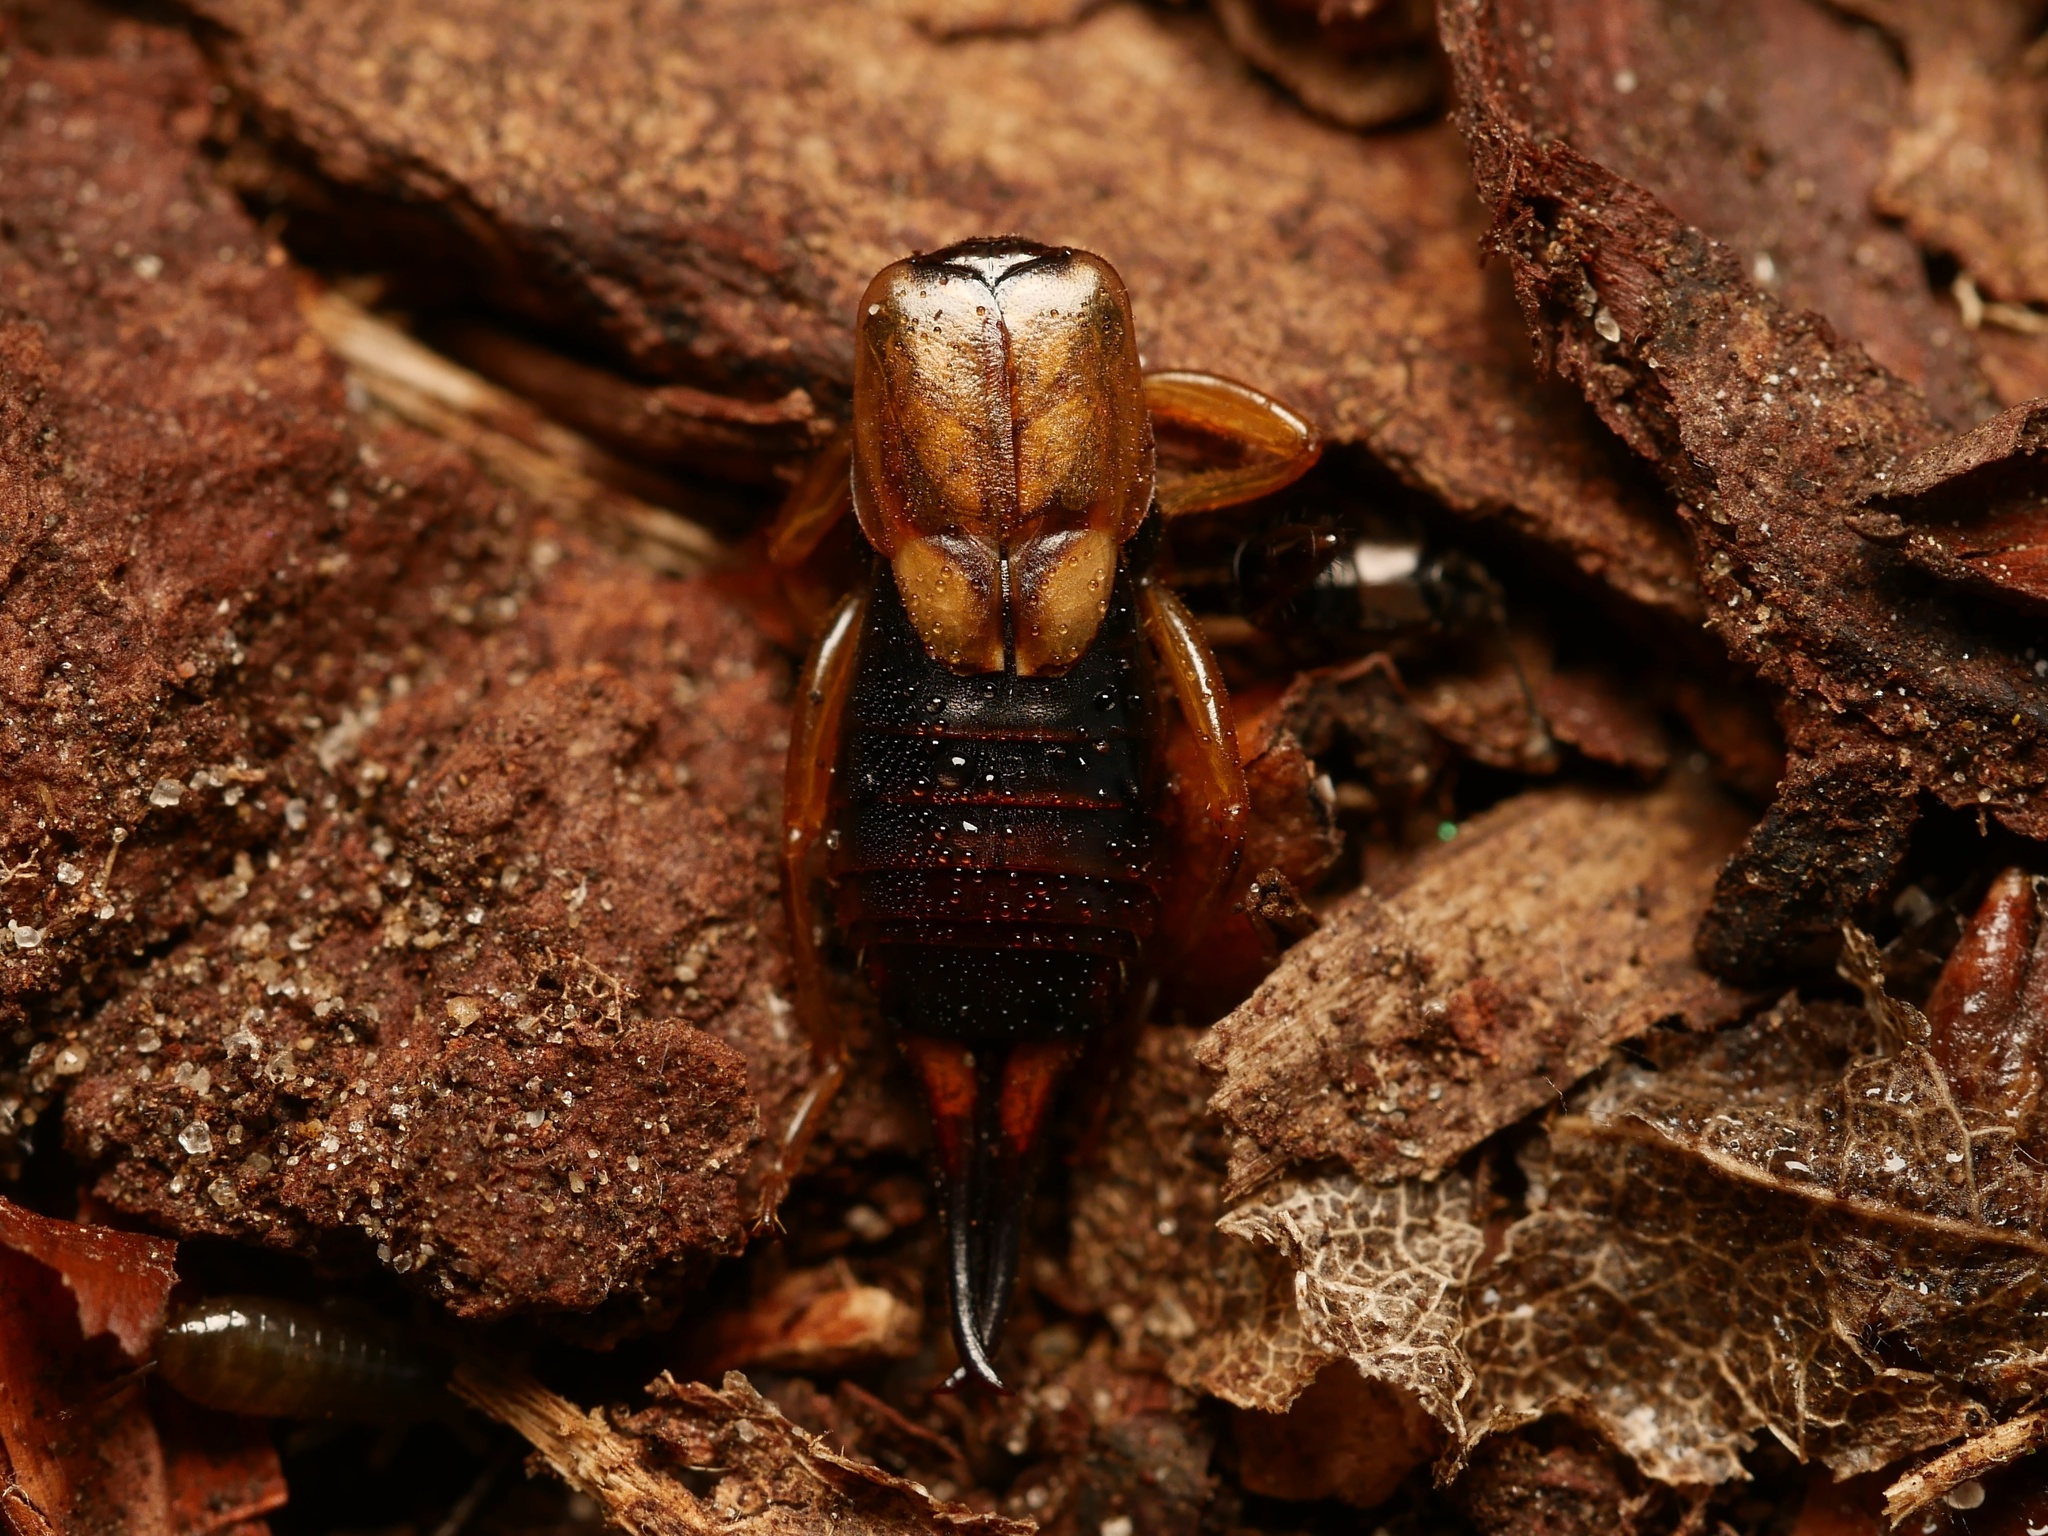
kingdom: Animalia
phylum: Arthropoda
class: Insecta
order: Dermaptera
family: Forficulidae
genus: Forficula
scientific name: Forficula
